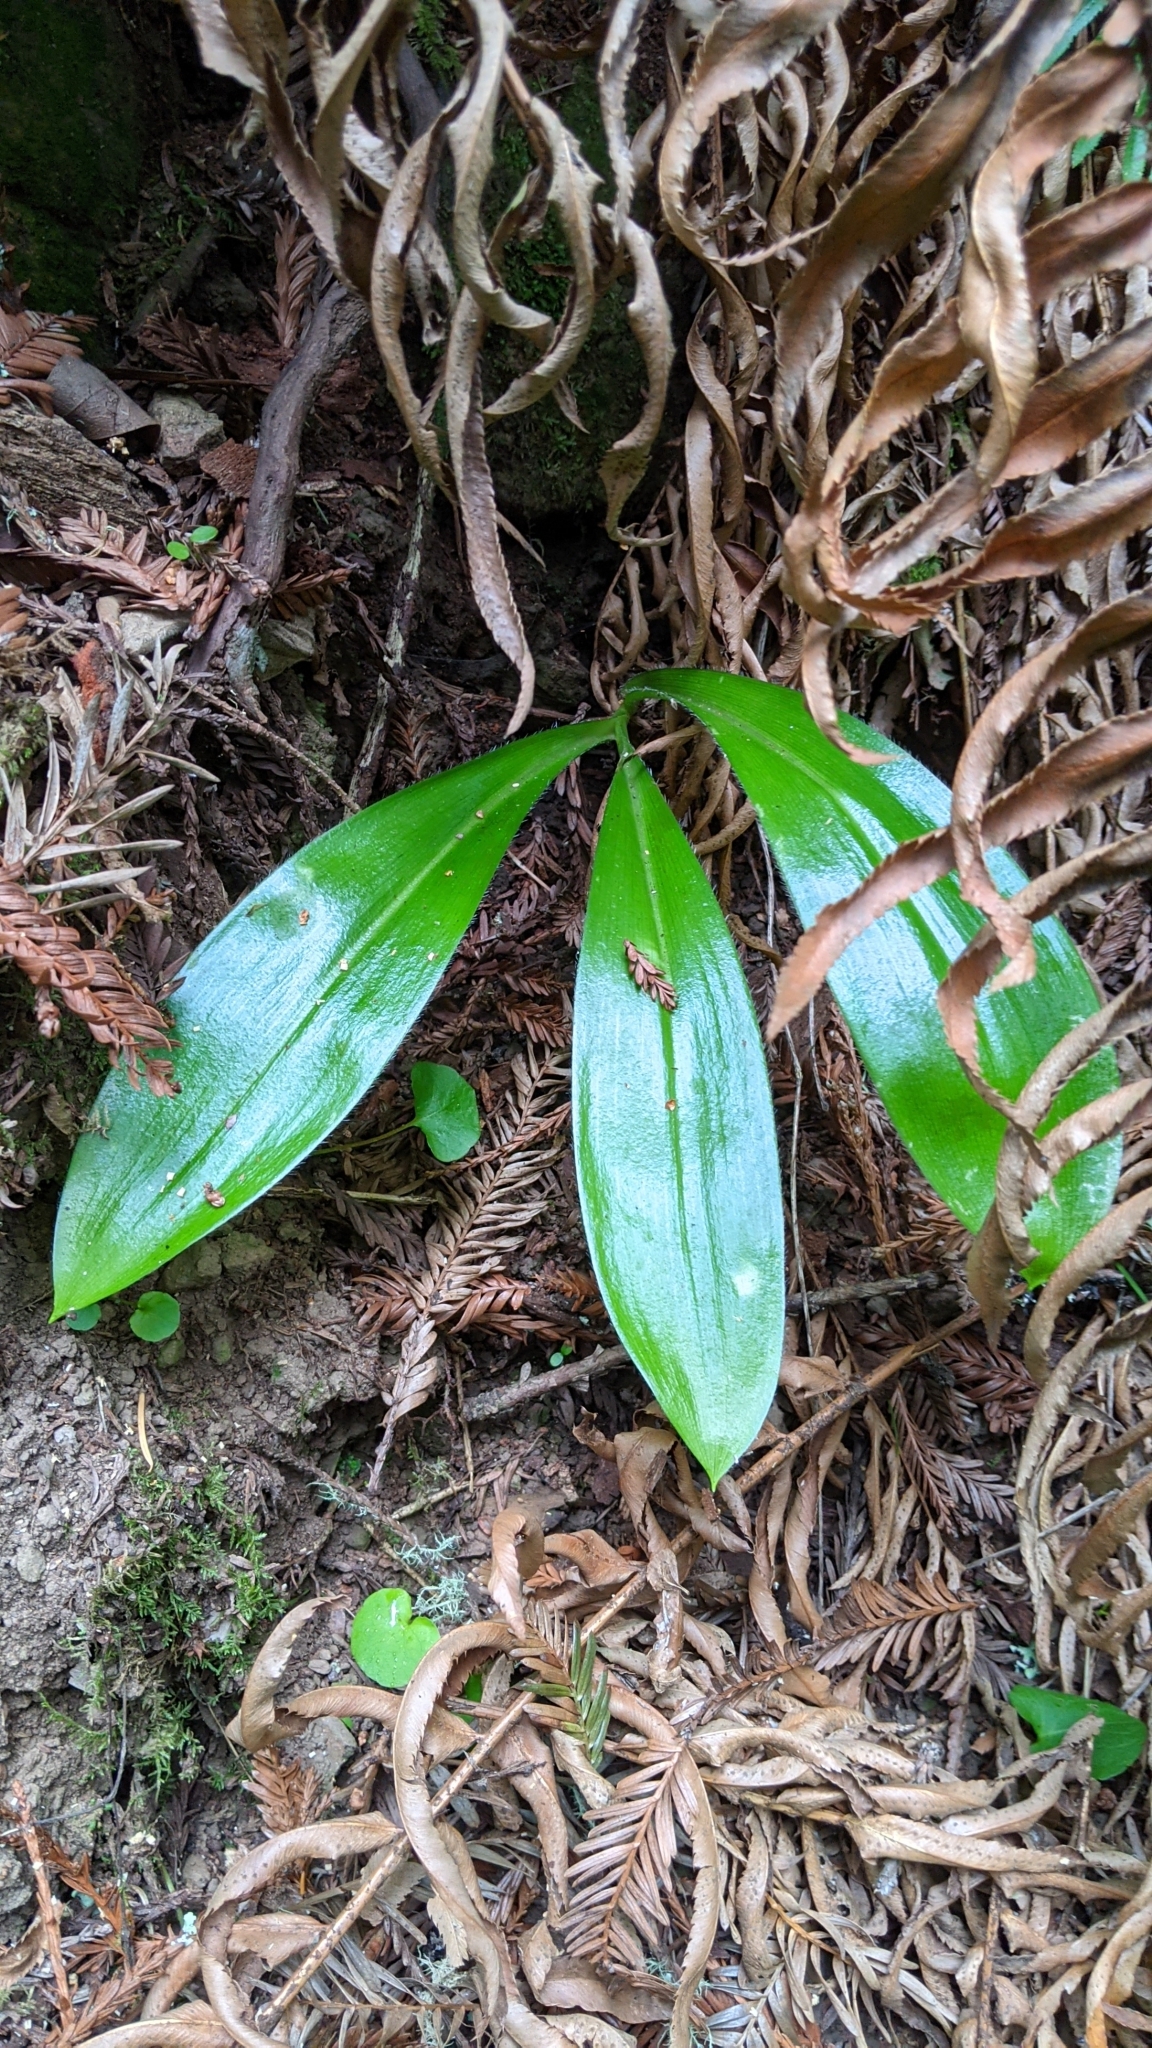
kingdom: Plantae
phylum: Tracheophyta
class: Liliopsida
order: Liliales
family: Liliaceae
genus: Clintonia
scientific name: Clintonia andrewsiana
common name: Red clintonia
